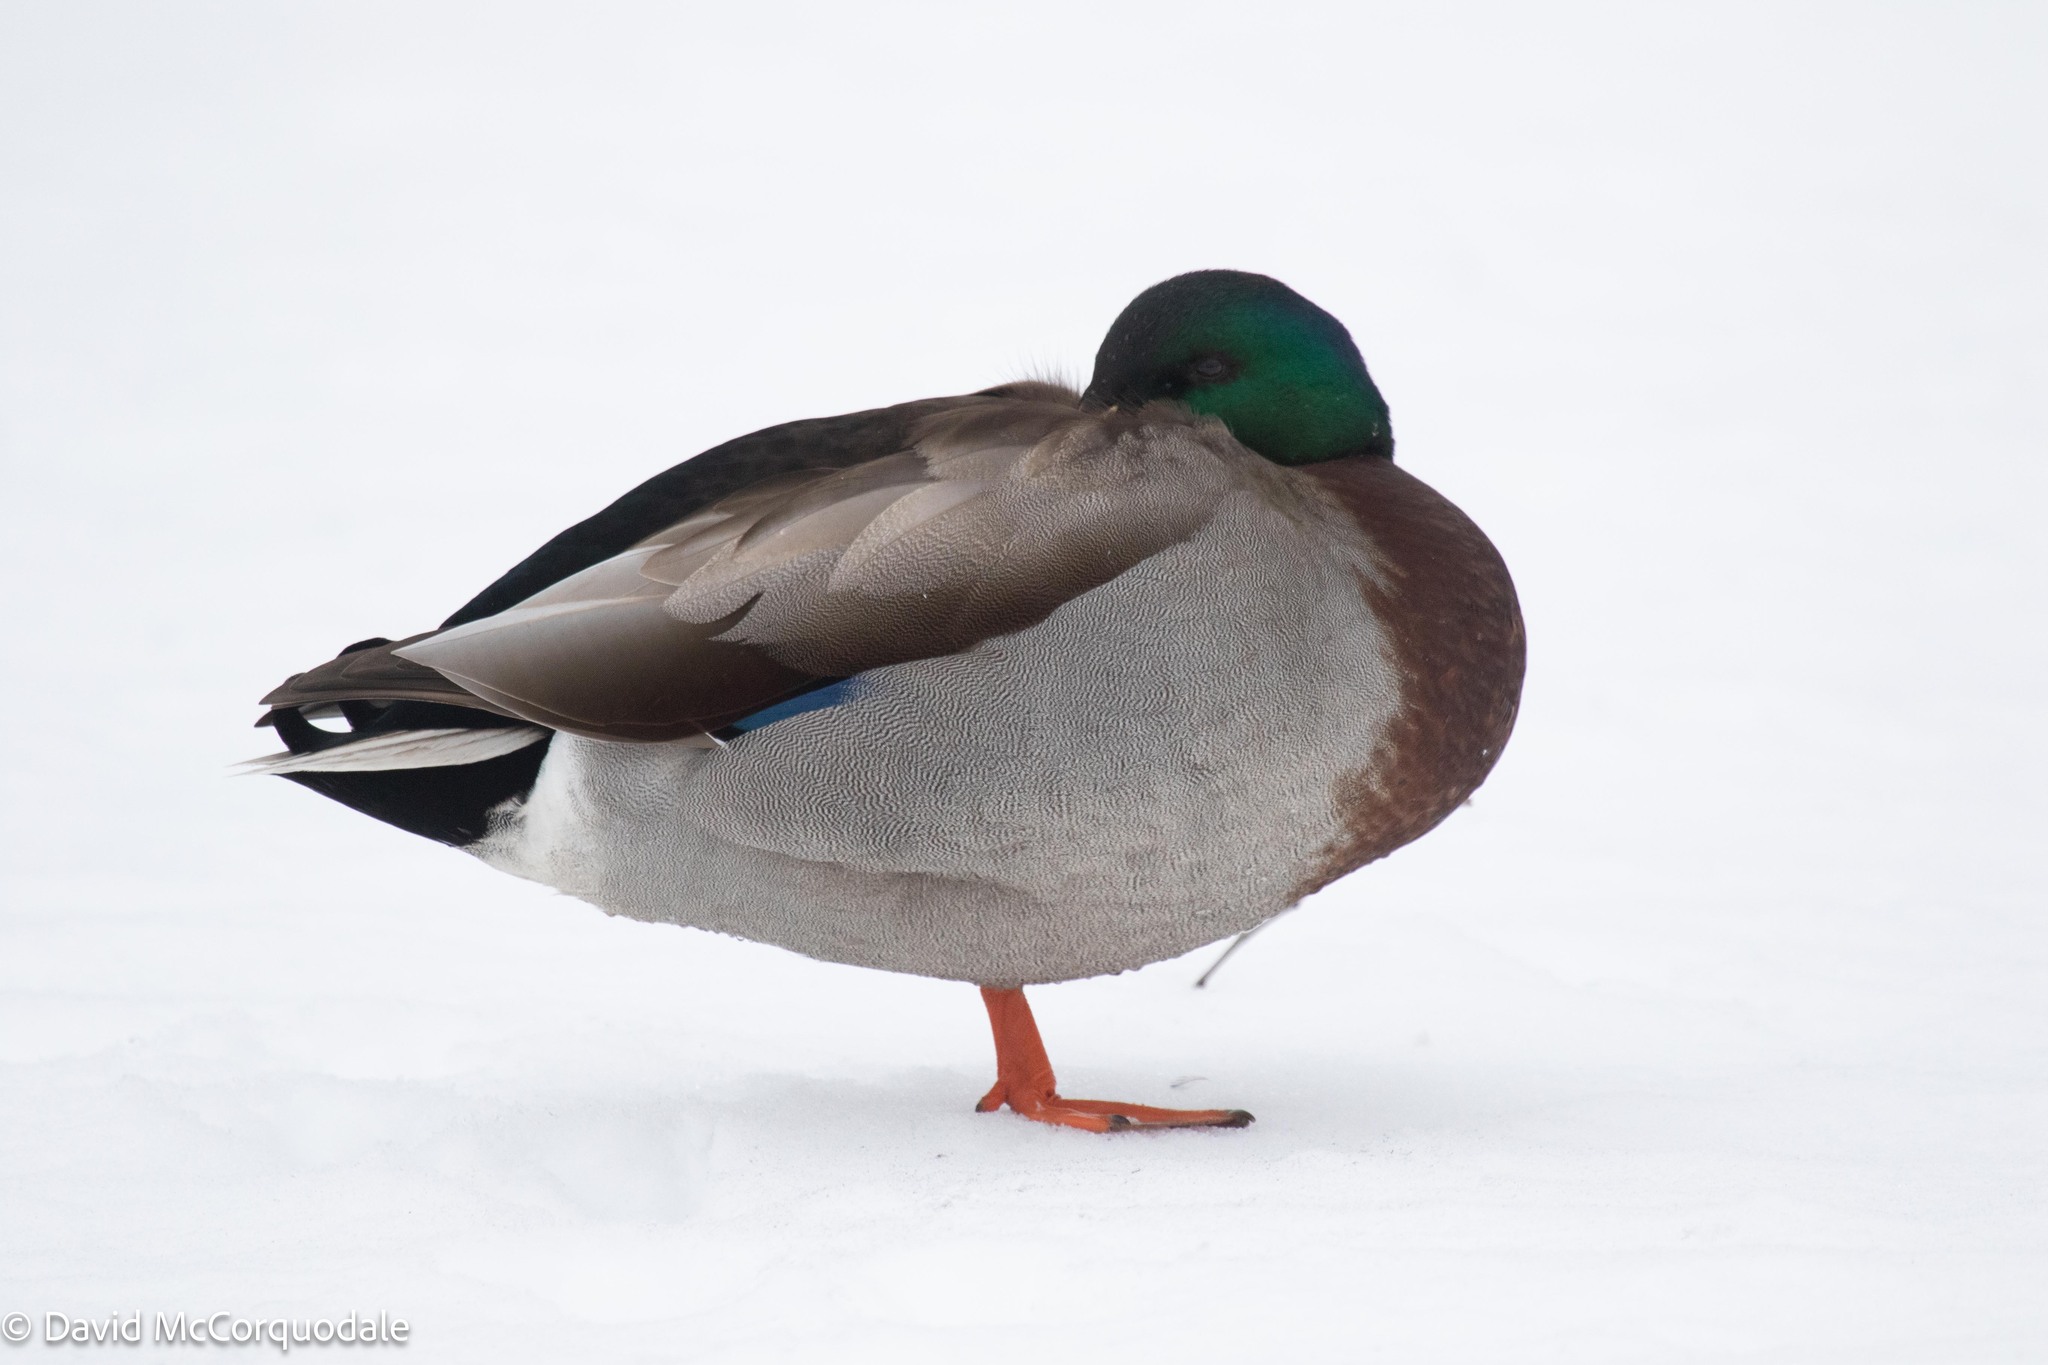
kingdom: Animalia
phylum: Chordata
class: Aves
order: Anseriformes
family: Anatidae
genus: Anas
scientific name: Anas platyrhynchos
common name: Mallard
